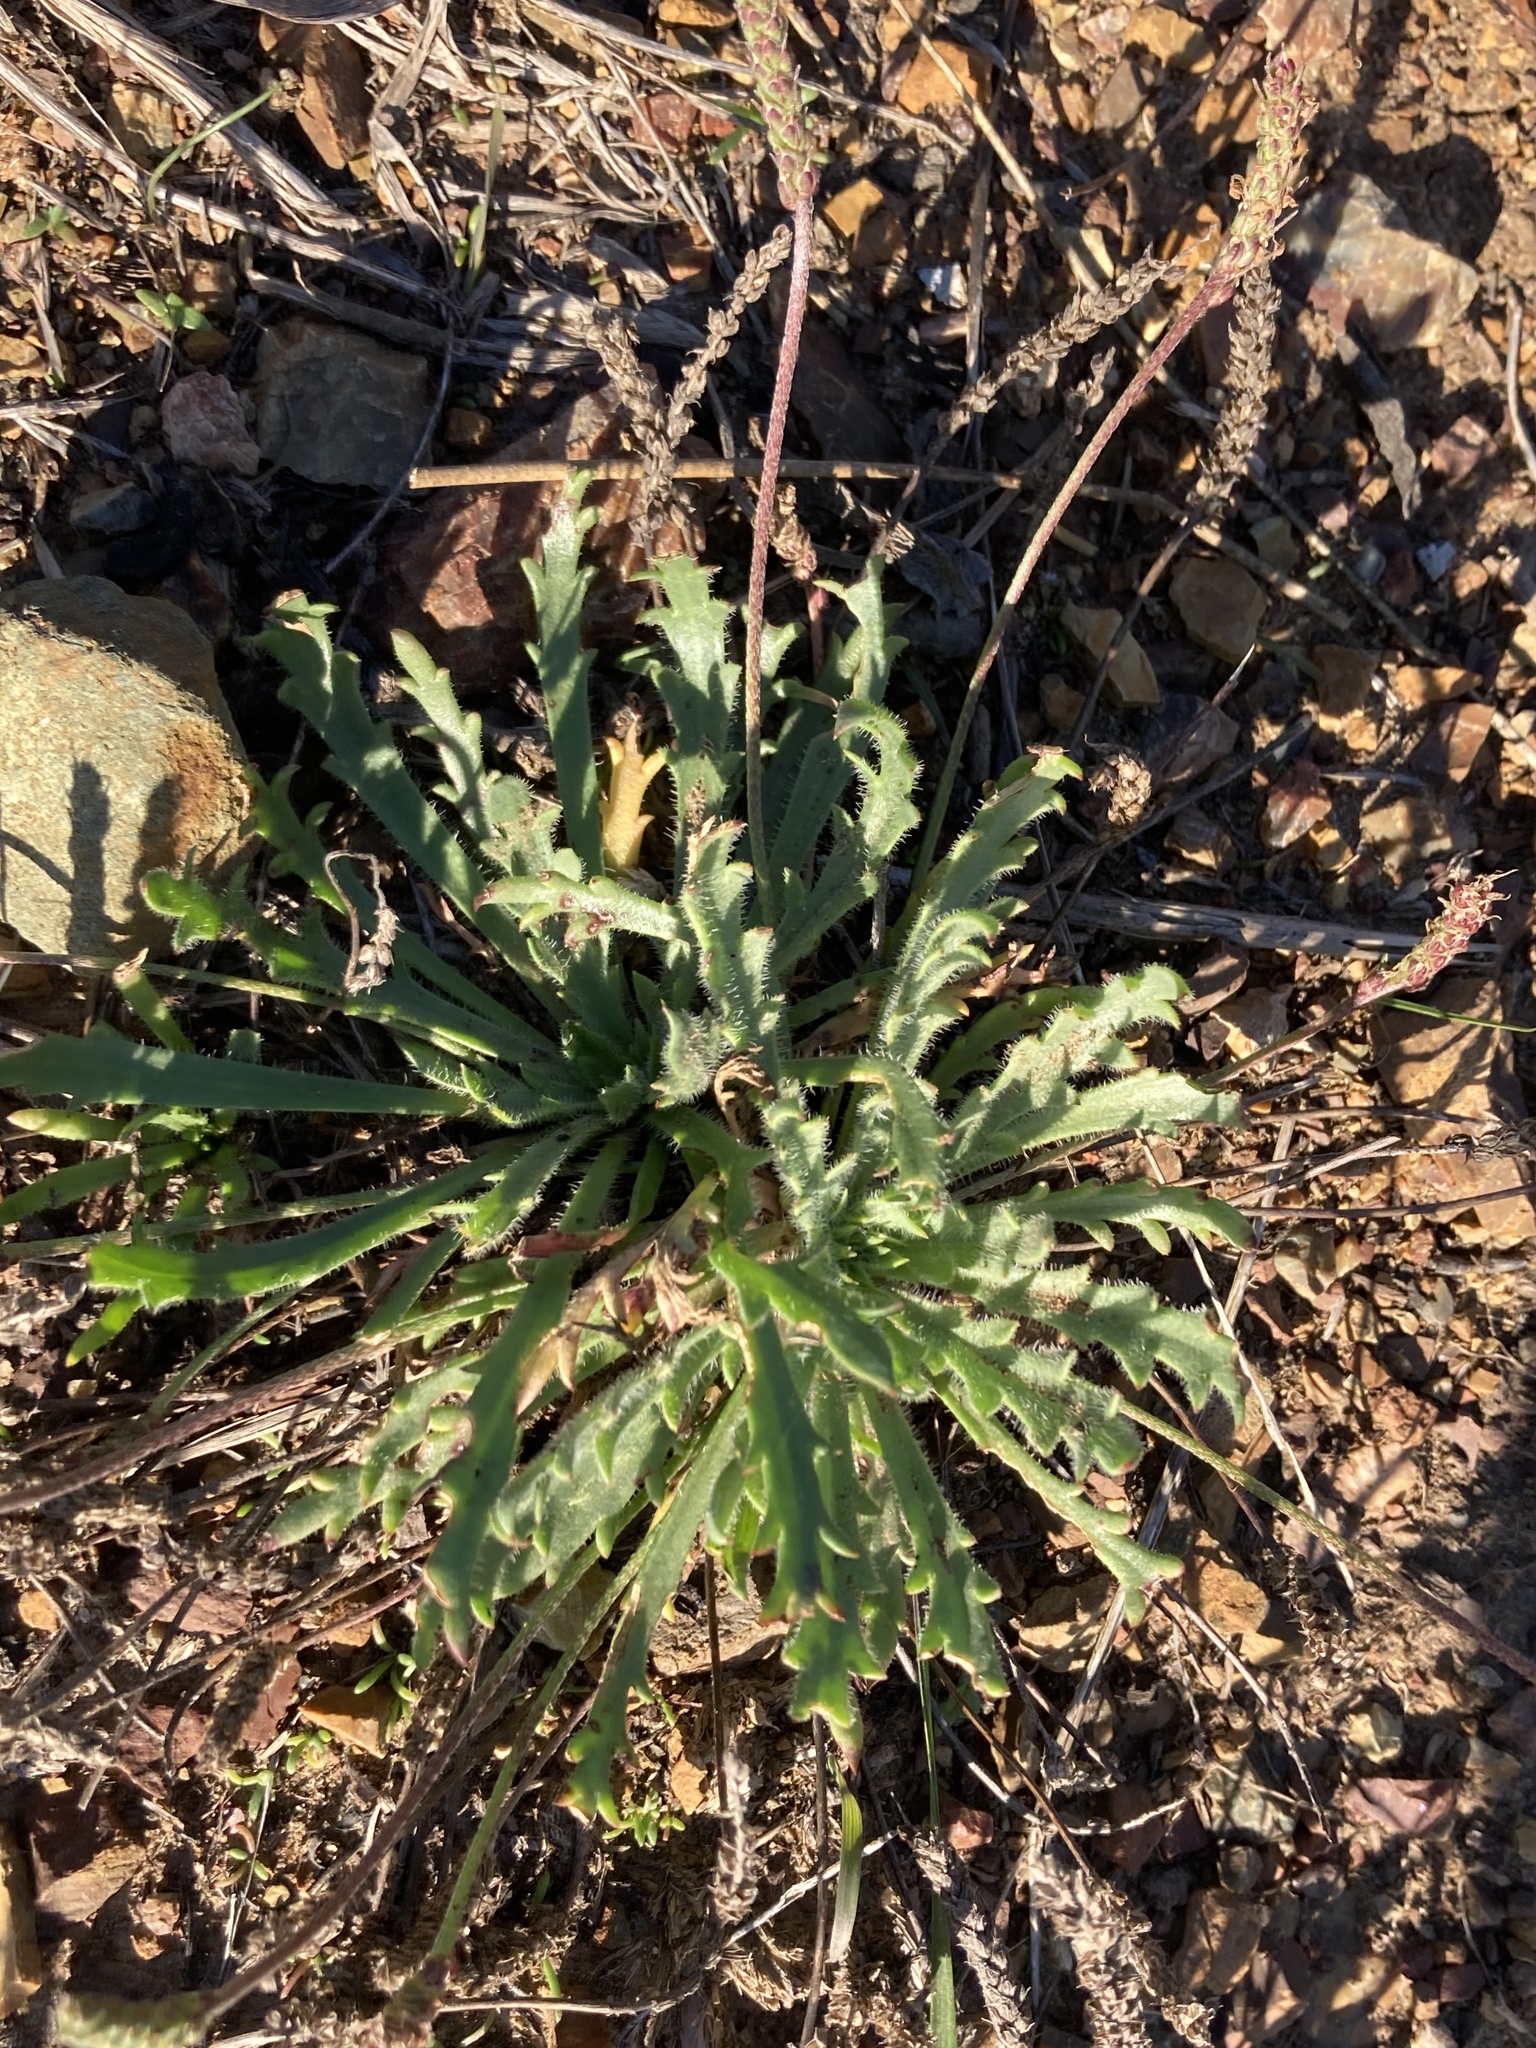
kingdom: Plantae
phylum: Tracheophyta
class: Magnoliopsida
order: Lamiales
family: Plantaginaceae
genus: Plantago
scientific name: Plantago coronopus
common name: Buck's-horn plantain
